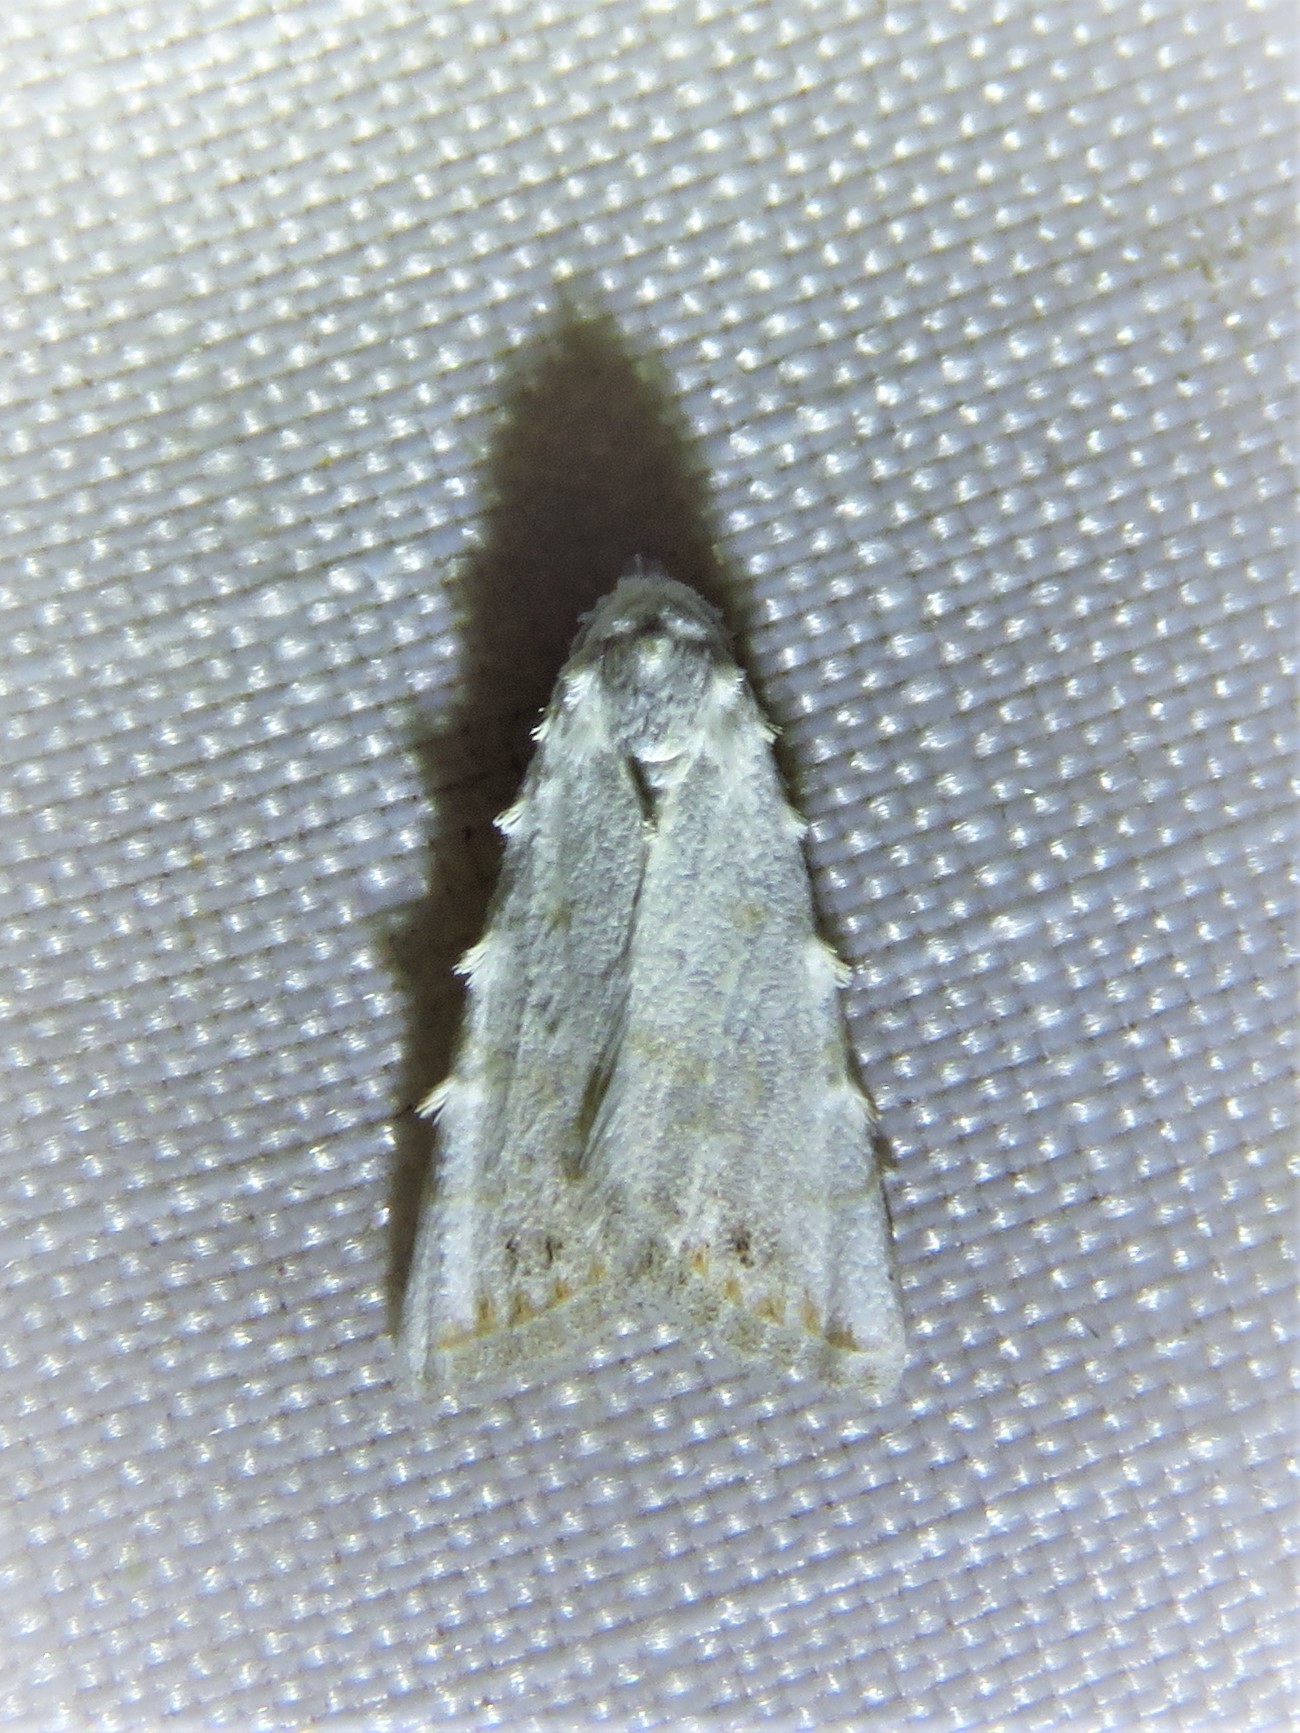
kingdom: Animalia
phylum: Arthropoda
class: Insecta
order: Lepidoptera
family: Nolidae
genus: Nola
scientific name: Nola cereella
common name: Sorghum webworm moth
